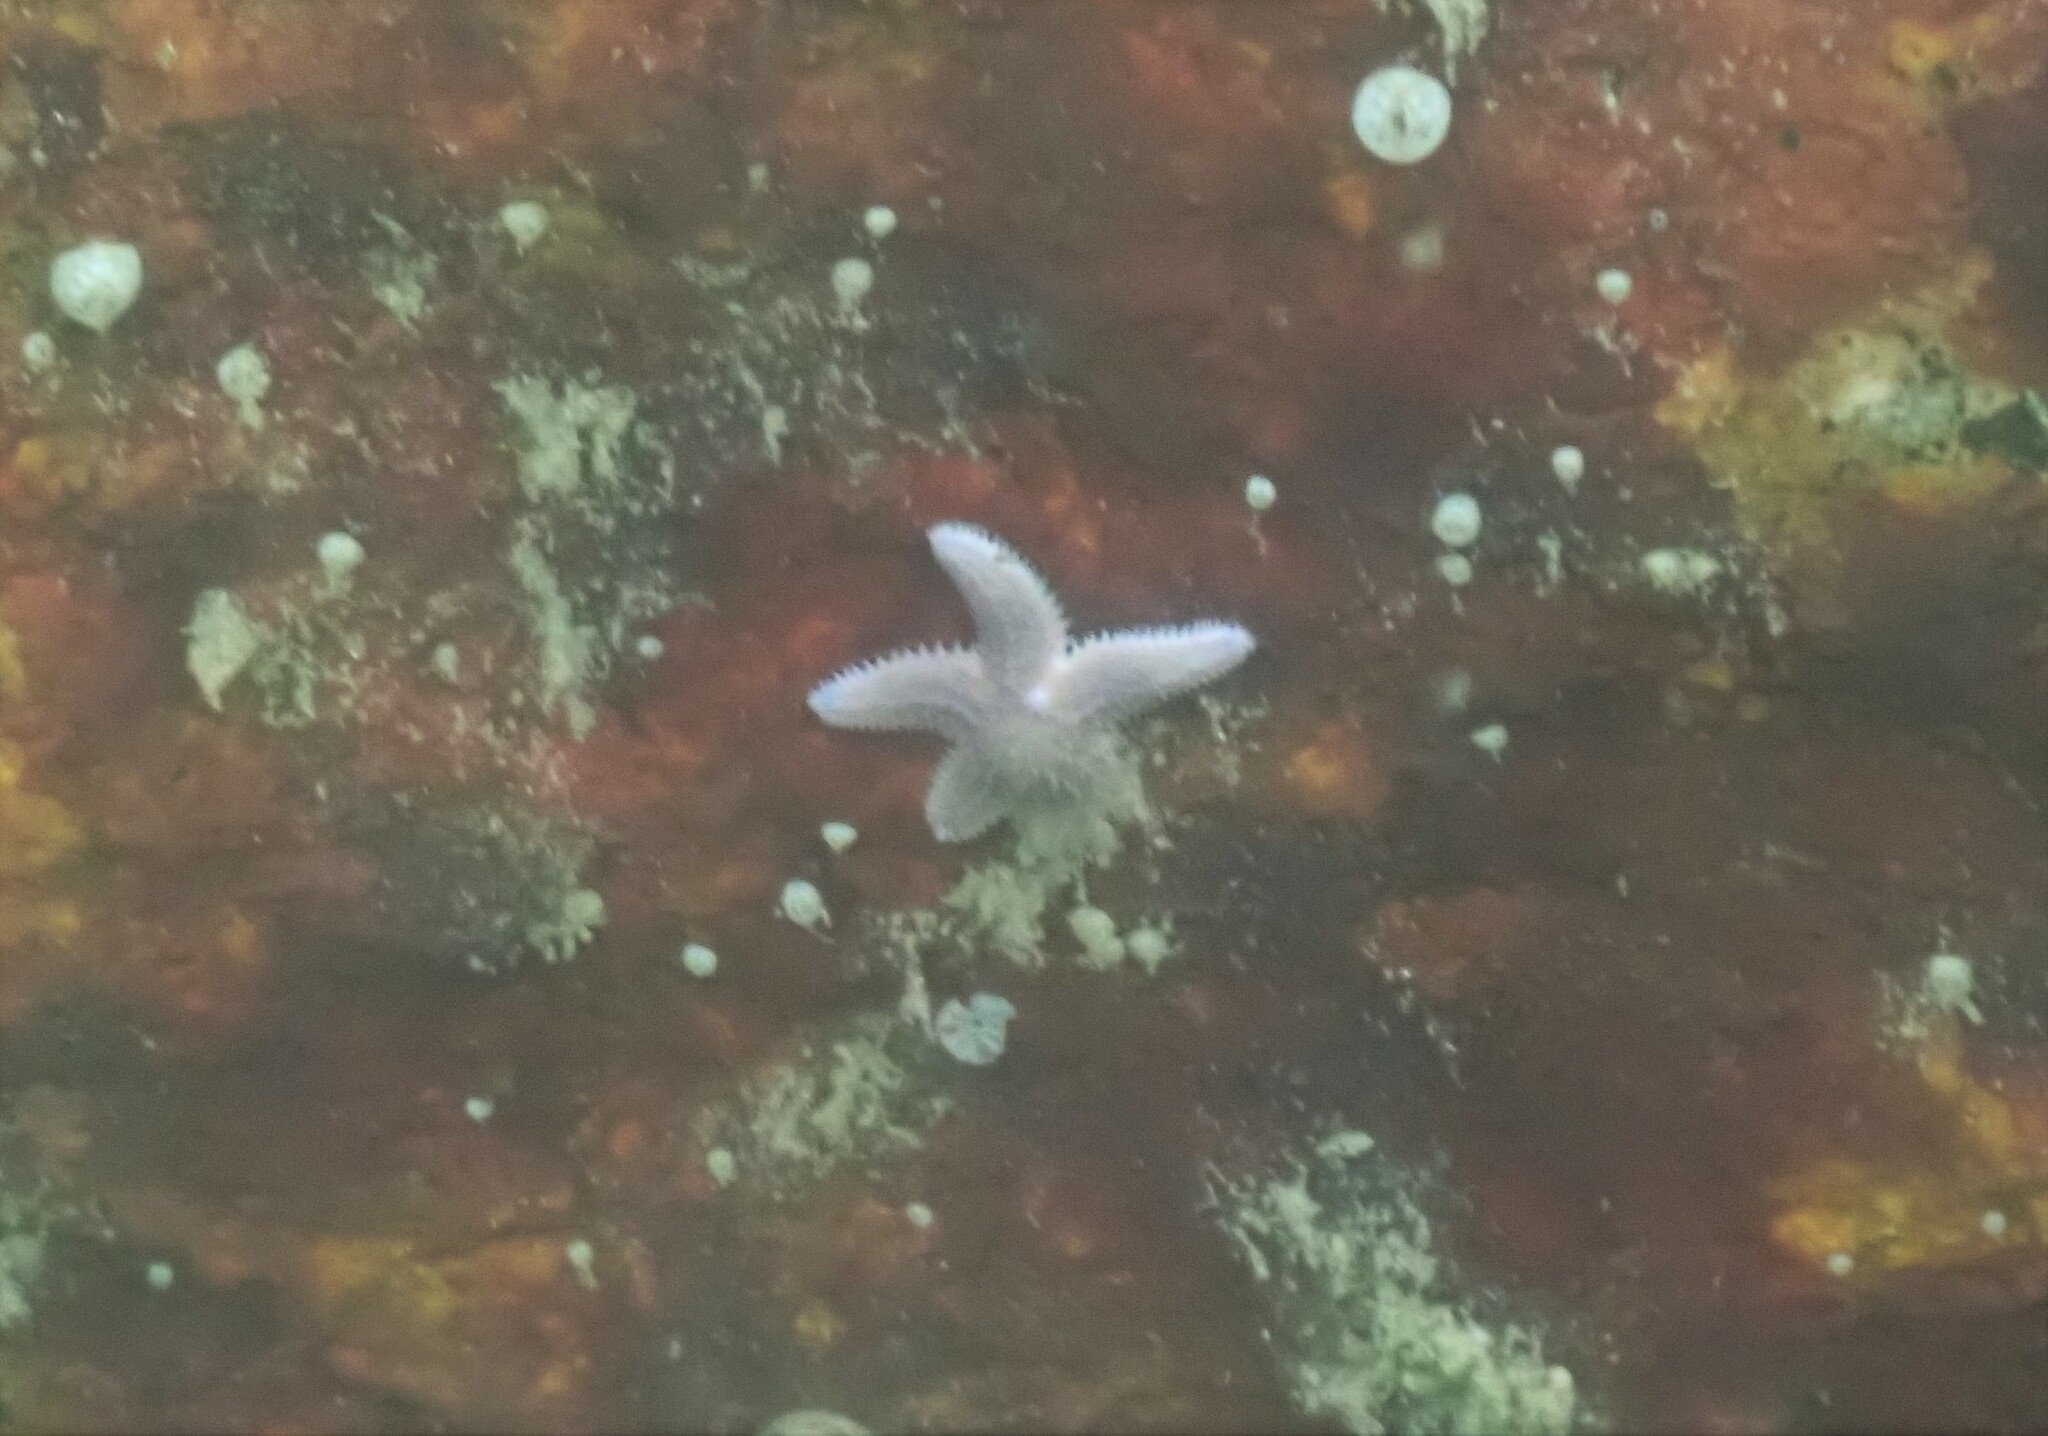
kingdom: Animalia
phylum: Echinodermata
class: Asteroidea
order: Forcipulatida
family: Asteriidae
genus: Asterias
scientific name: Asterias rubens
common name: Common starfish
